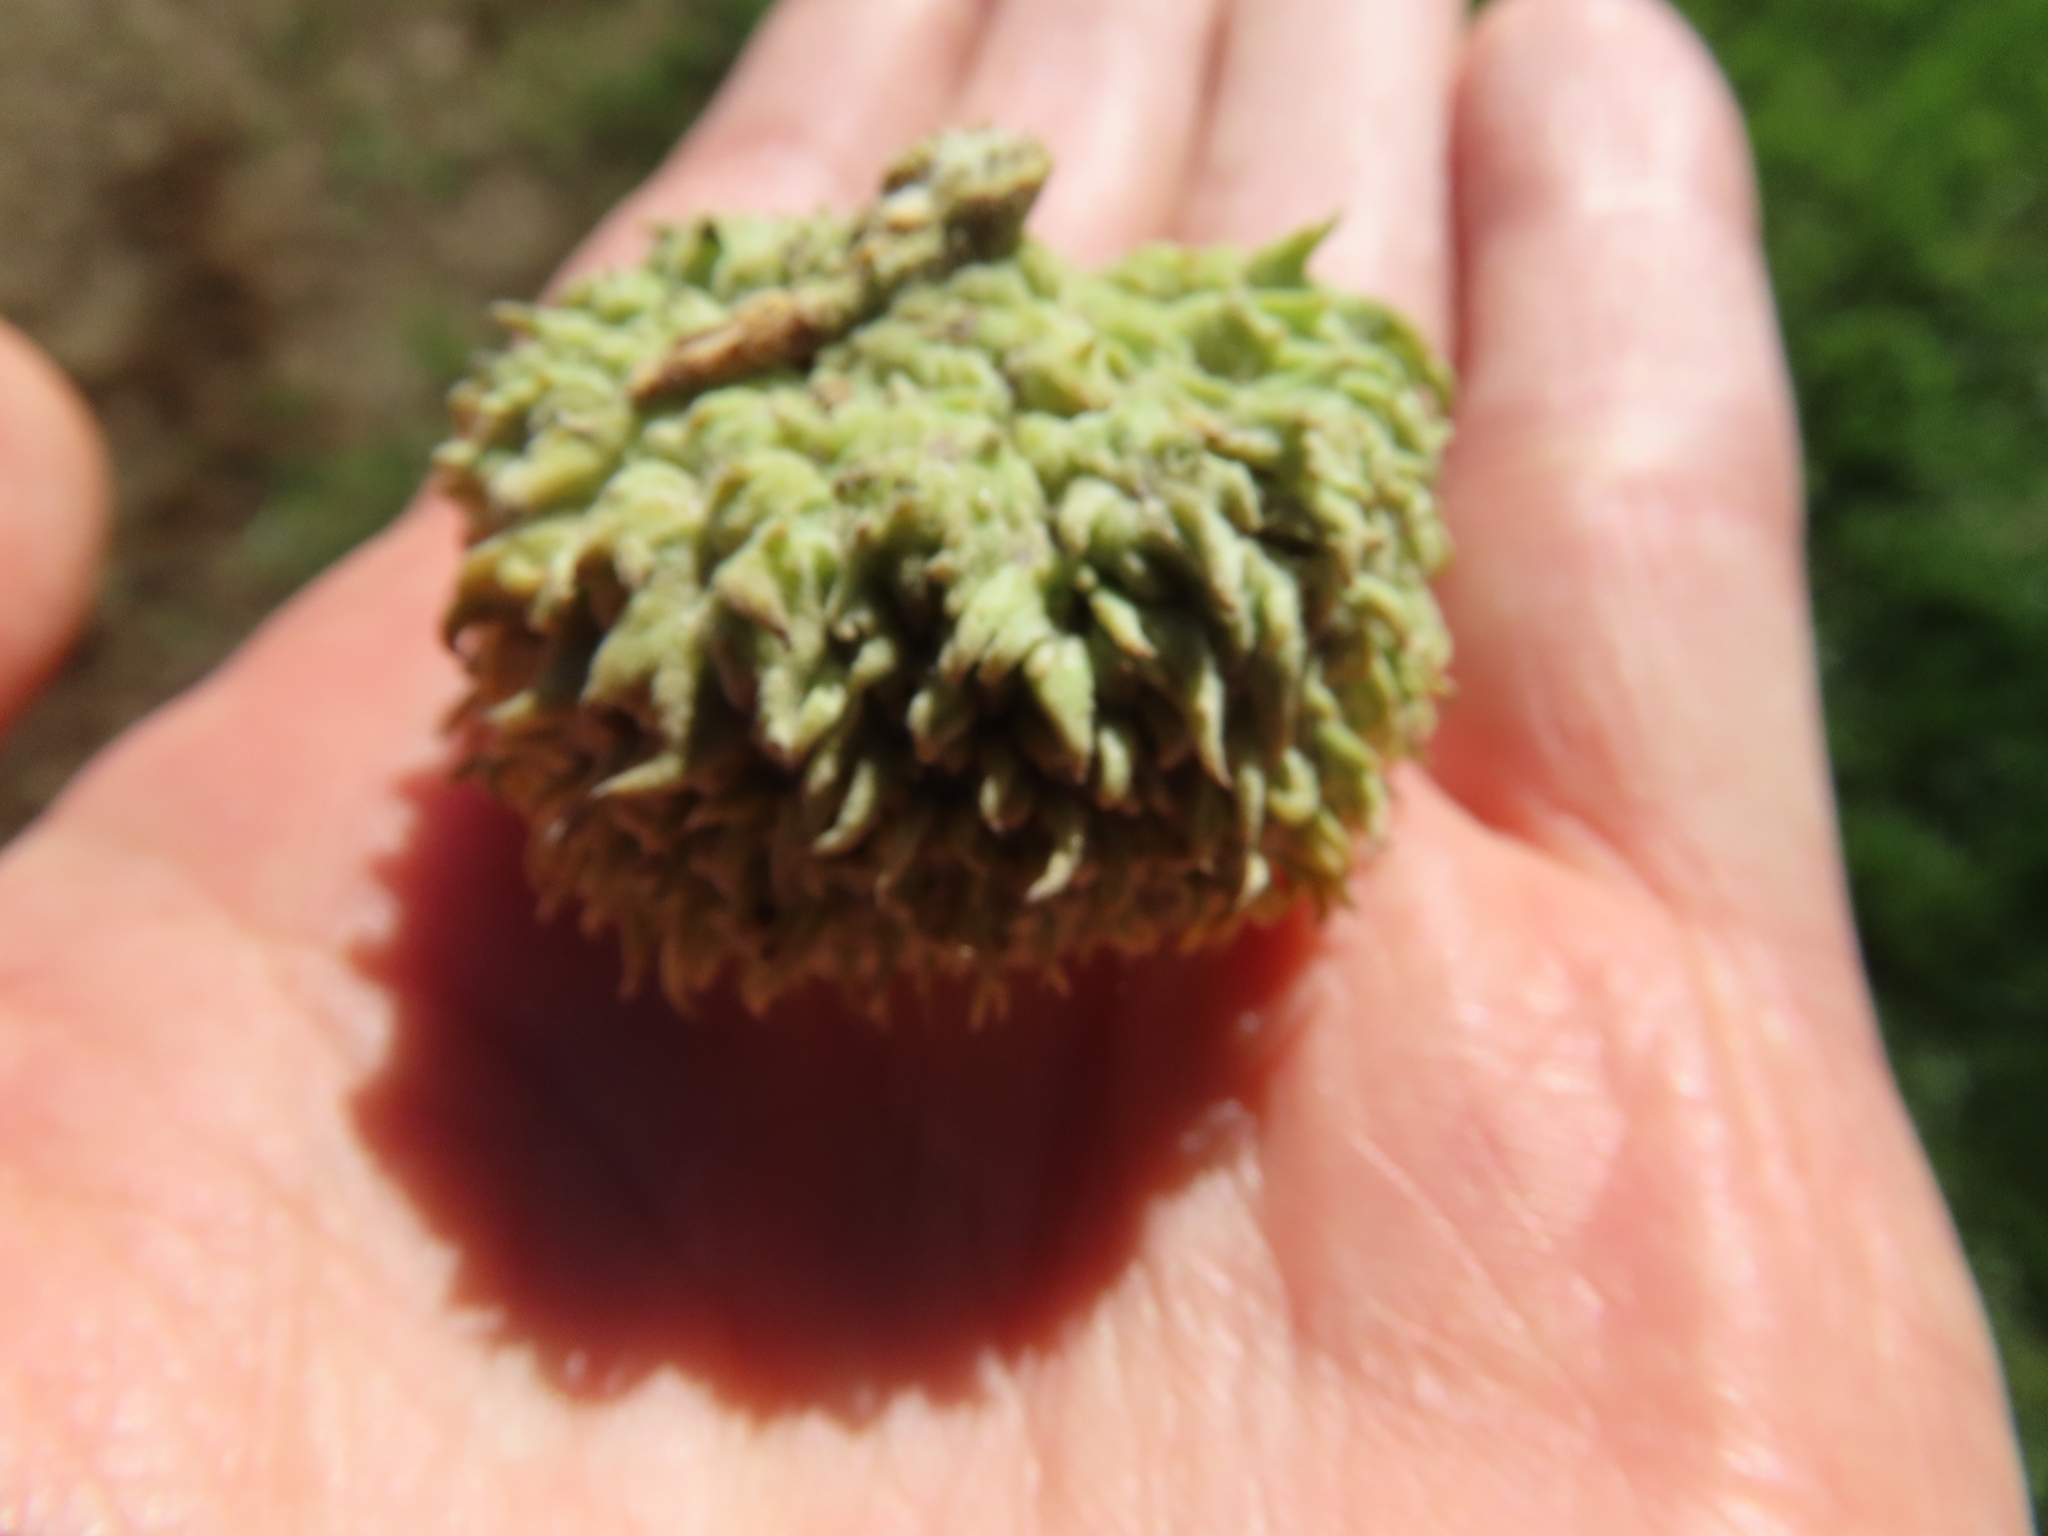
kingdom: Plantae
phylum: Tracheophyta
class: Magnoliopsida
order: Fagales
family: Fagaceae
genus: Quercus
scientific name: Quercus macrocarpa
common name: Bur oak
